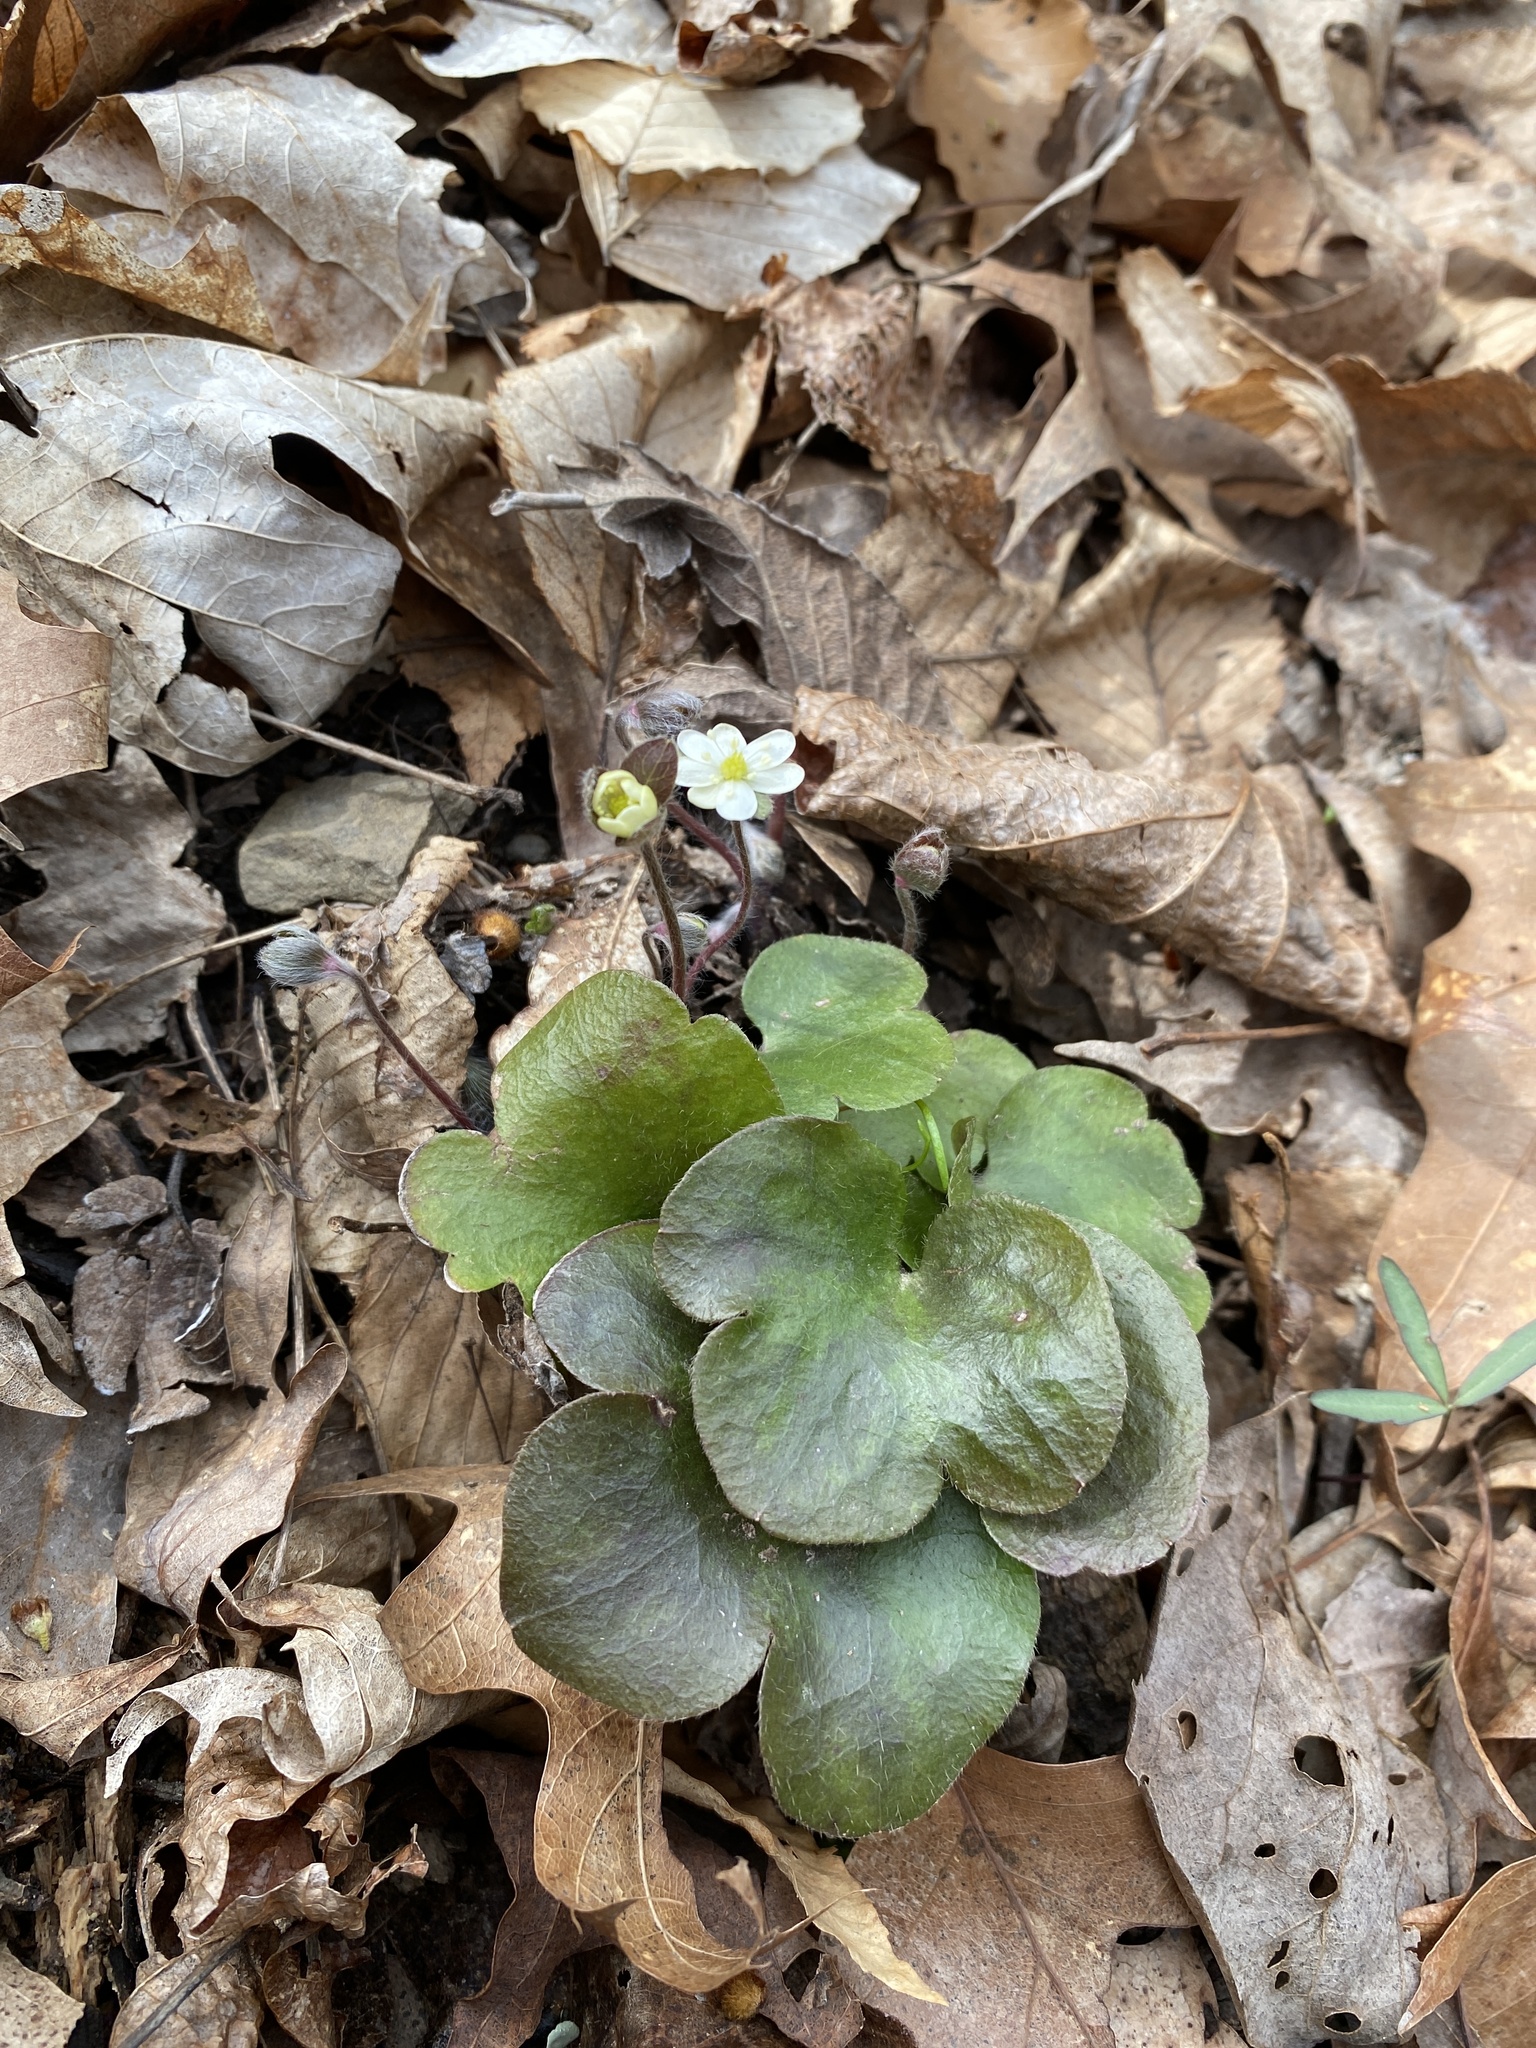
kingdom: Plantae
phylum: Tracheophyta
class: Magnoliopsida
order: Ranunculales
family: Ranunculaceae
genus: Hepatica
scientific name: Hepatica americana
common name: American hepatica
